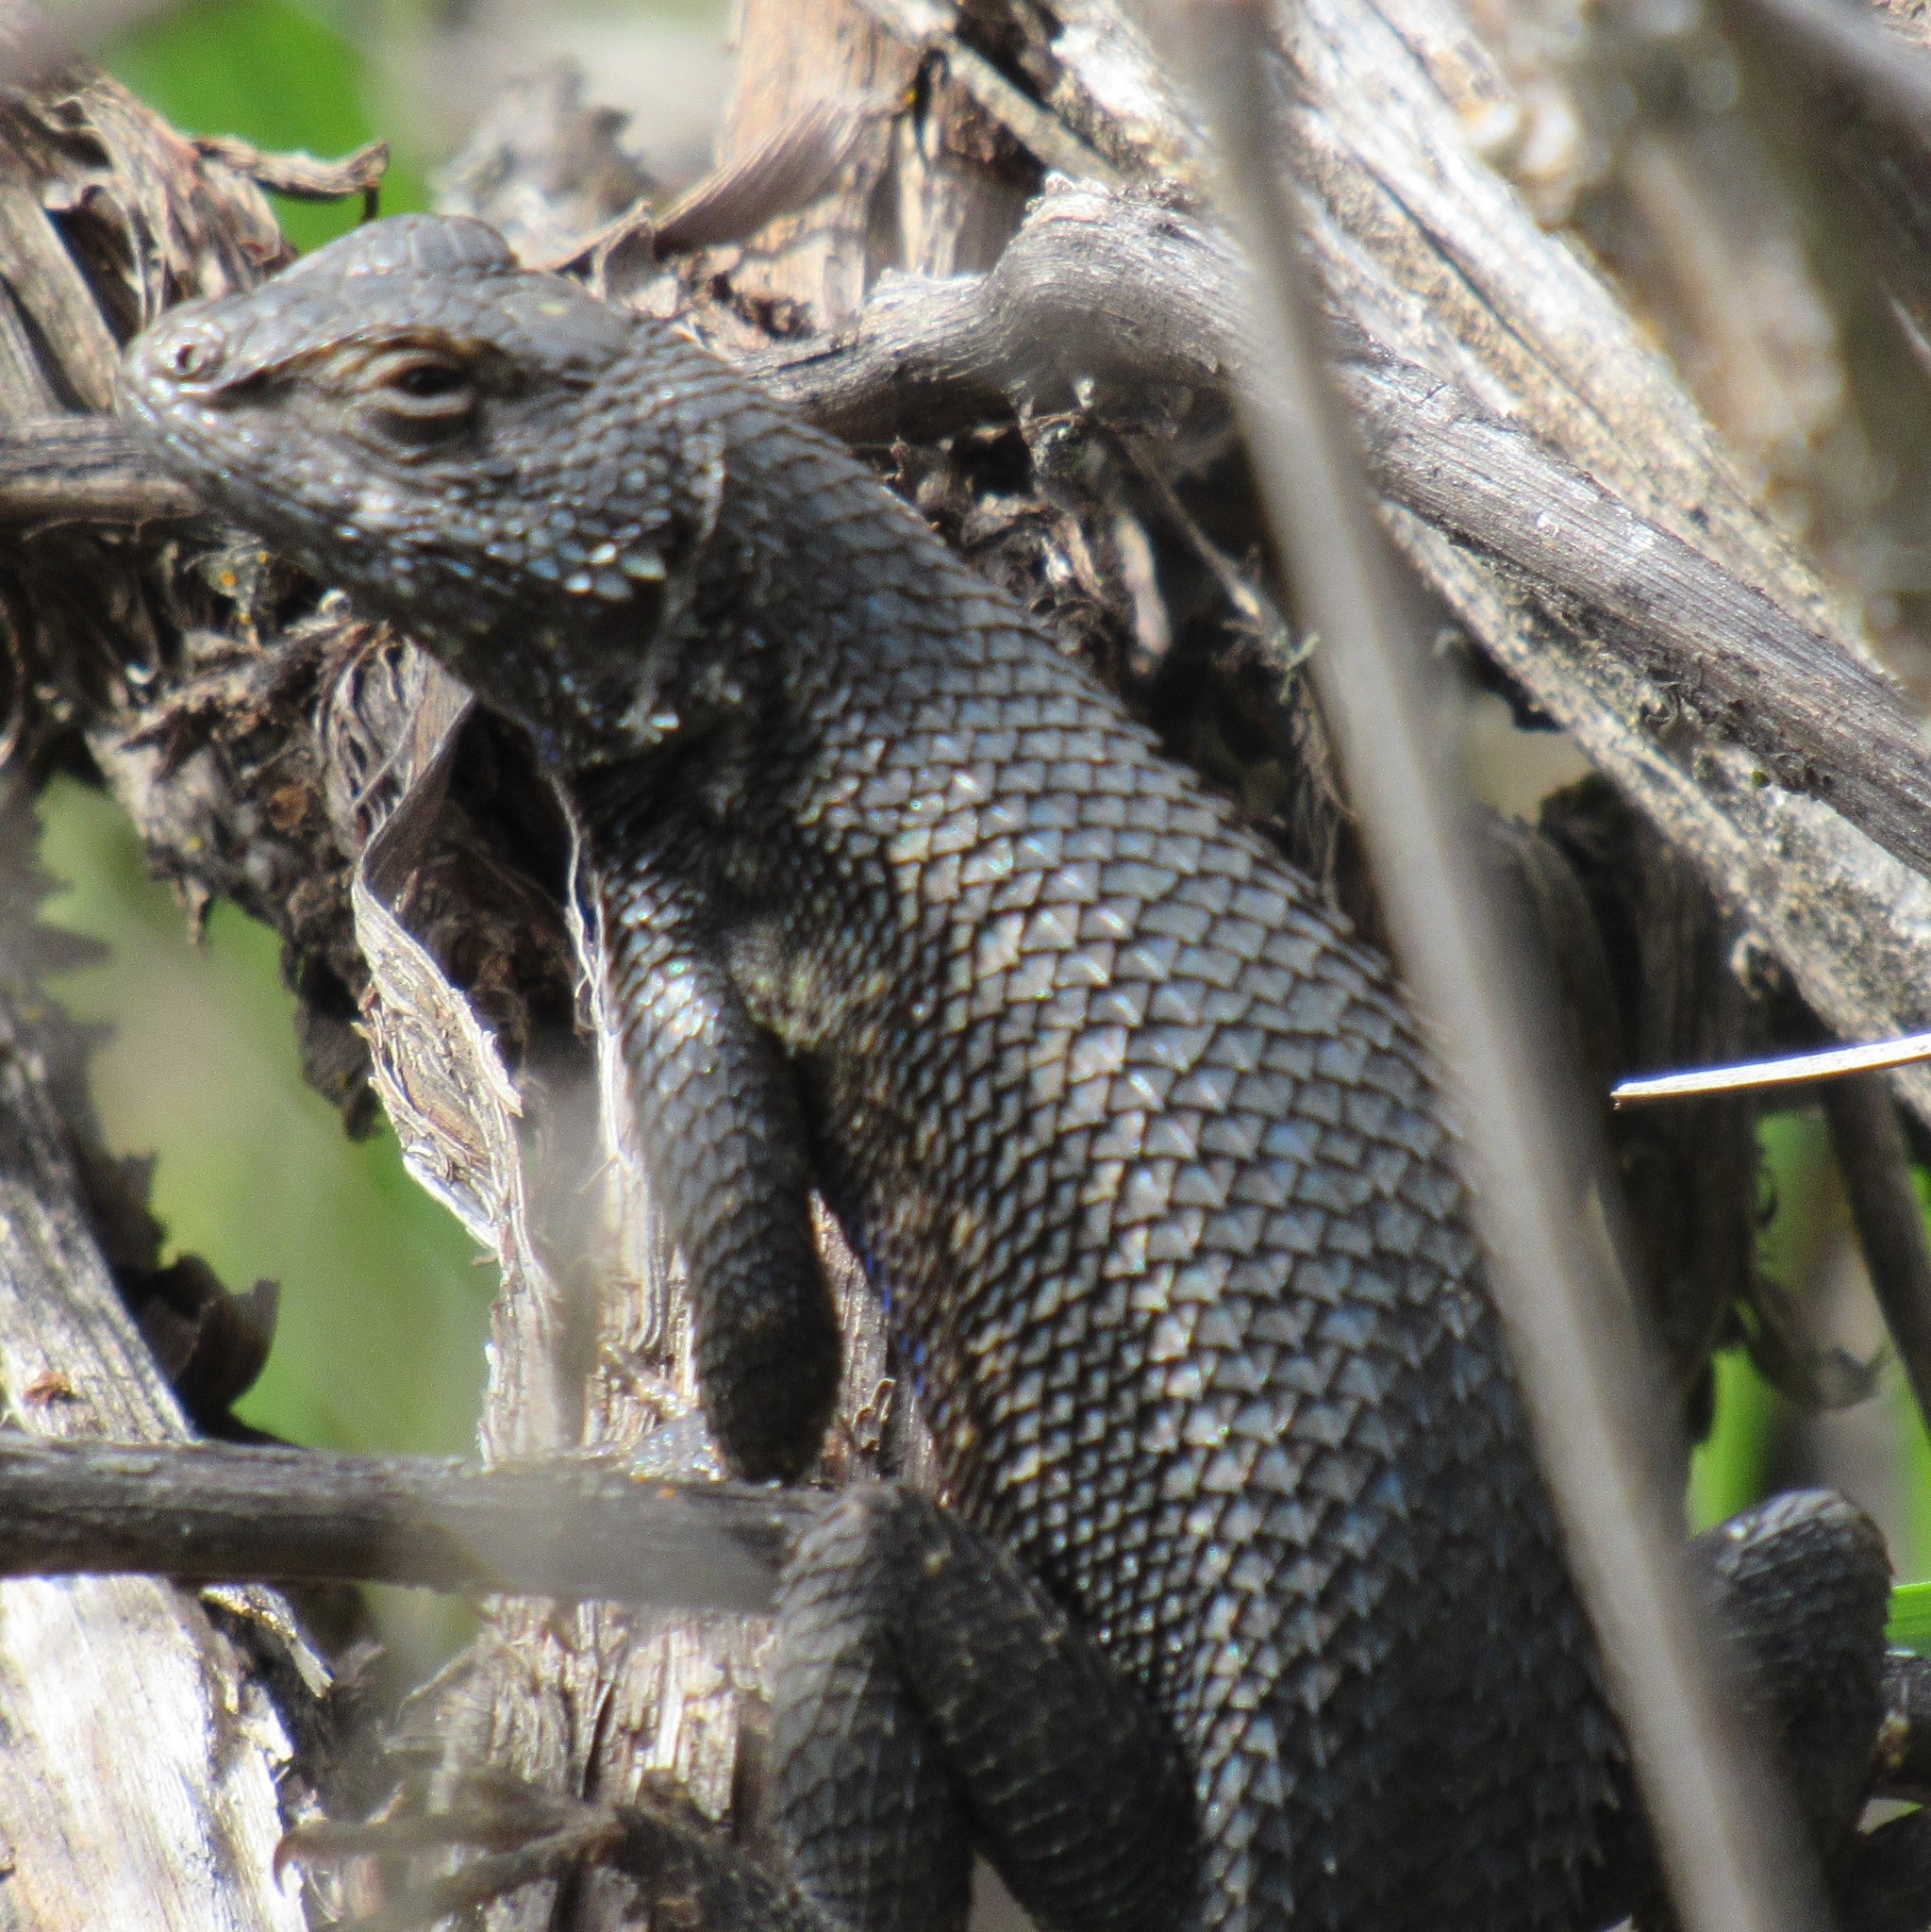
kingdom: Animalia
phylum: Chordata
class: Squamata
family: Phrynosomatidae
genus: Sceloporus
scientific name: Sceloporus occidentalis
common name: Western fence lizard
